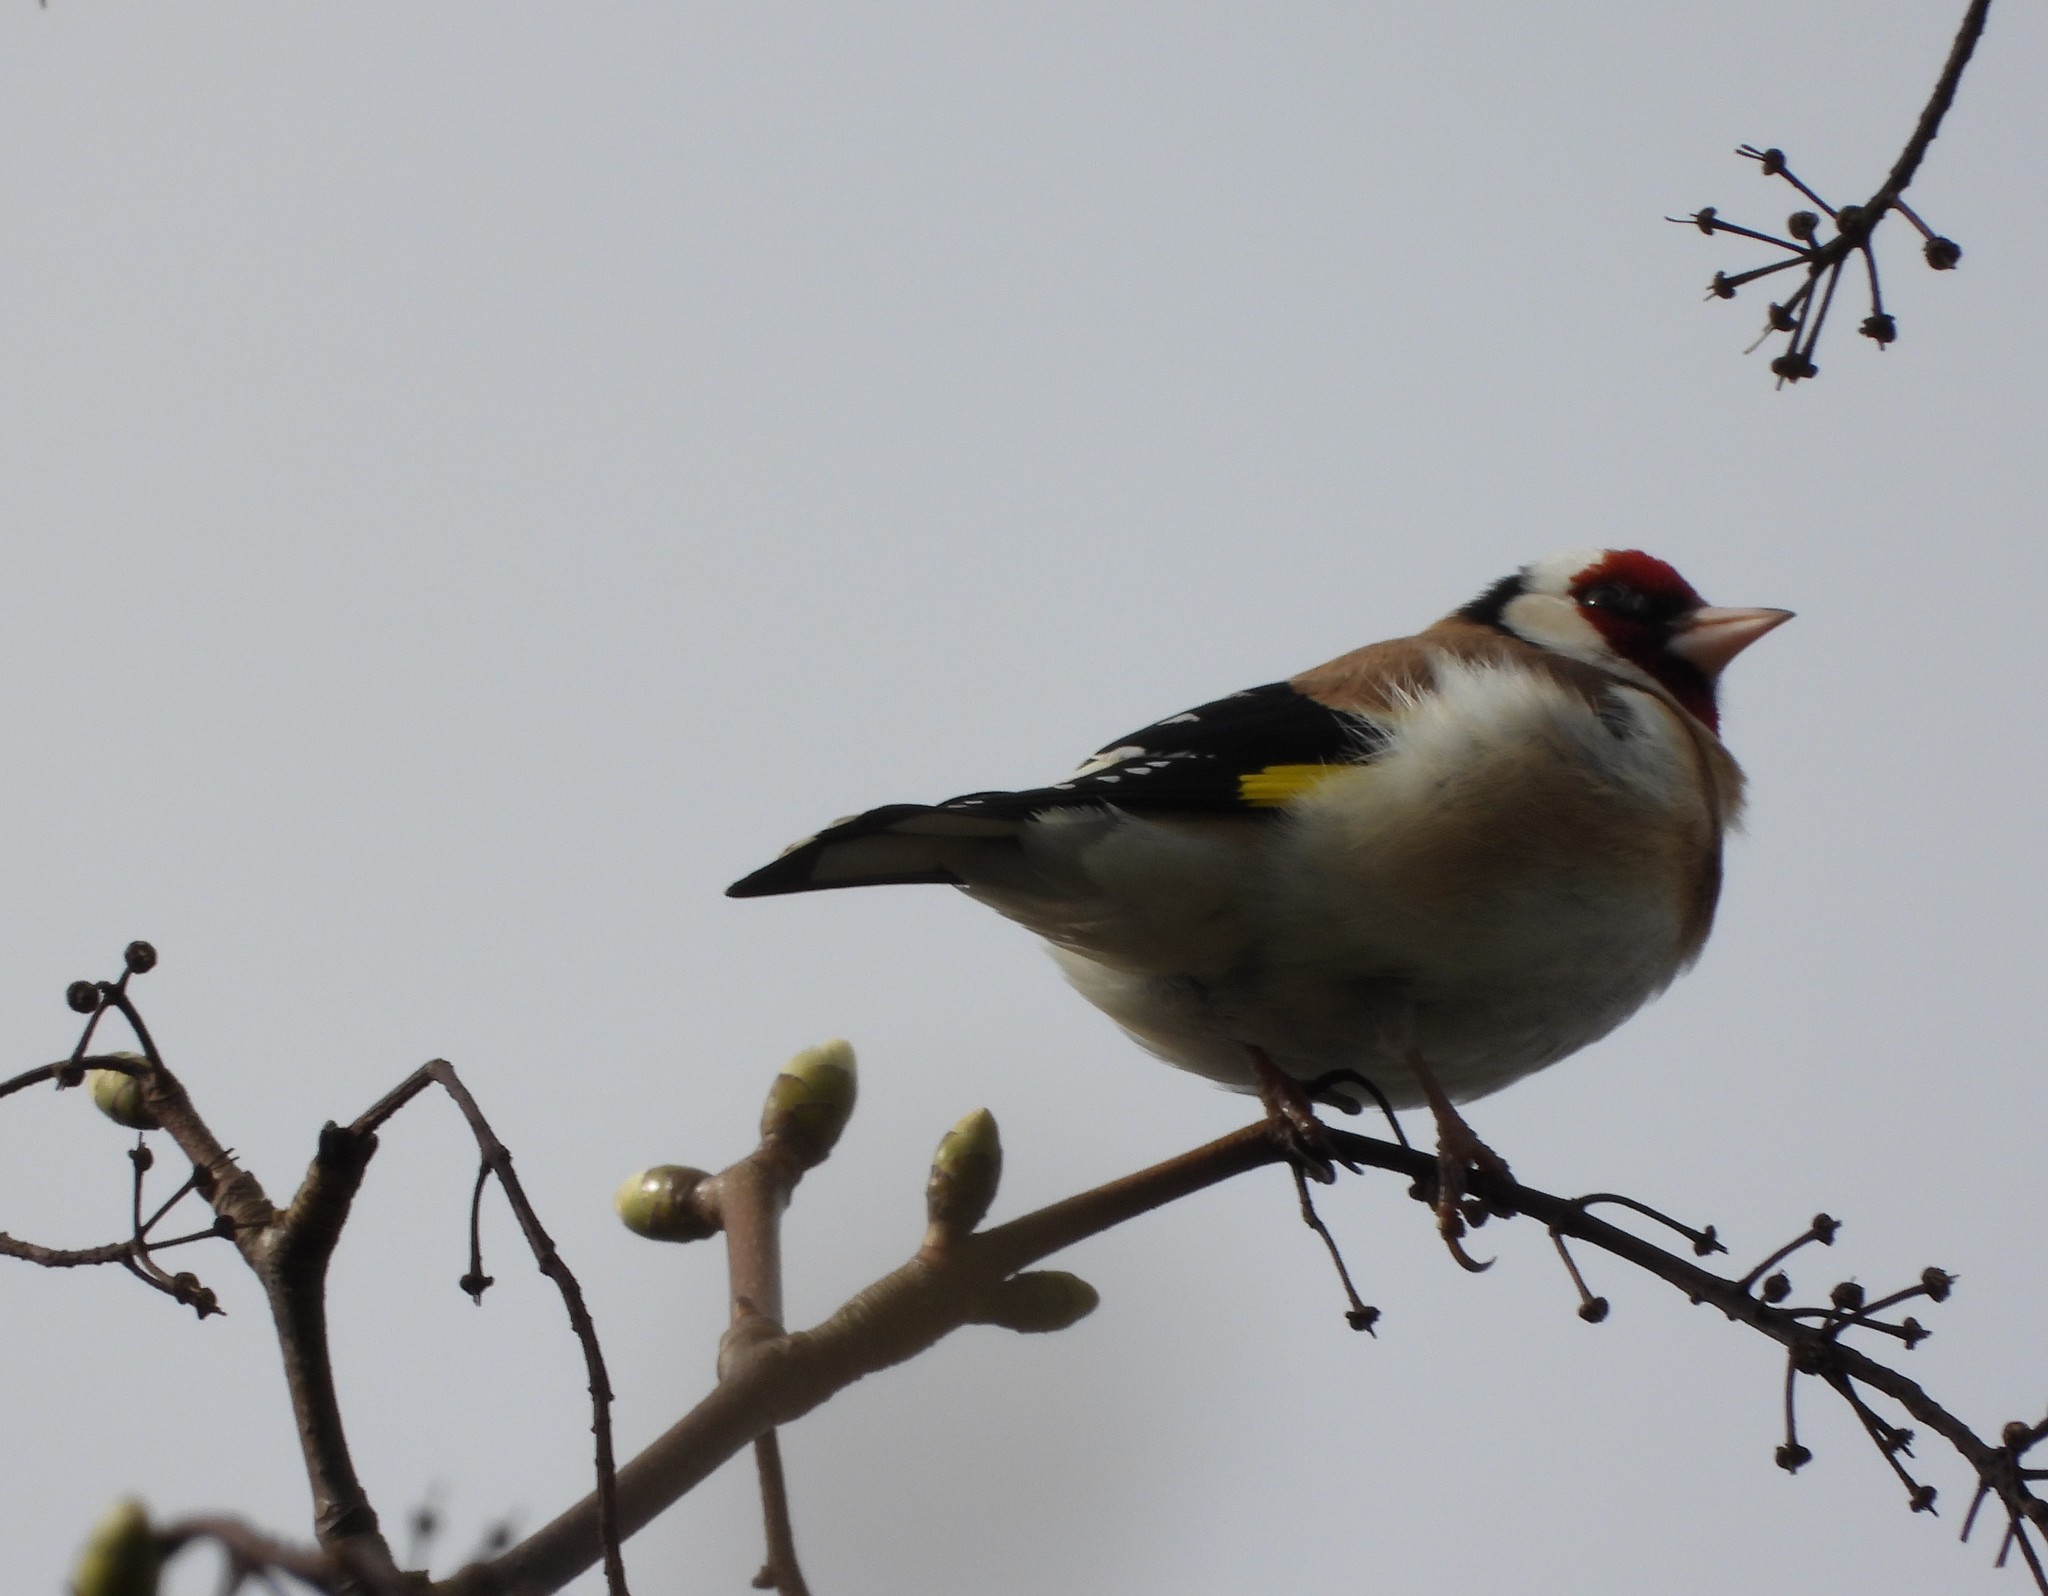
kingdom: Animalia
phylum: Chordata
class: Aves
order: Passeriformes
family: Fringillidae
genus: Carduelis
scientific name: Carduelis carduelis
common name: European goldfinch
